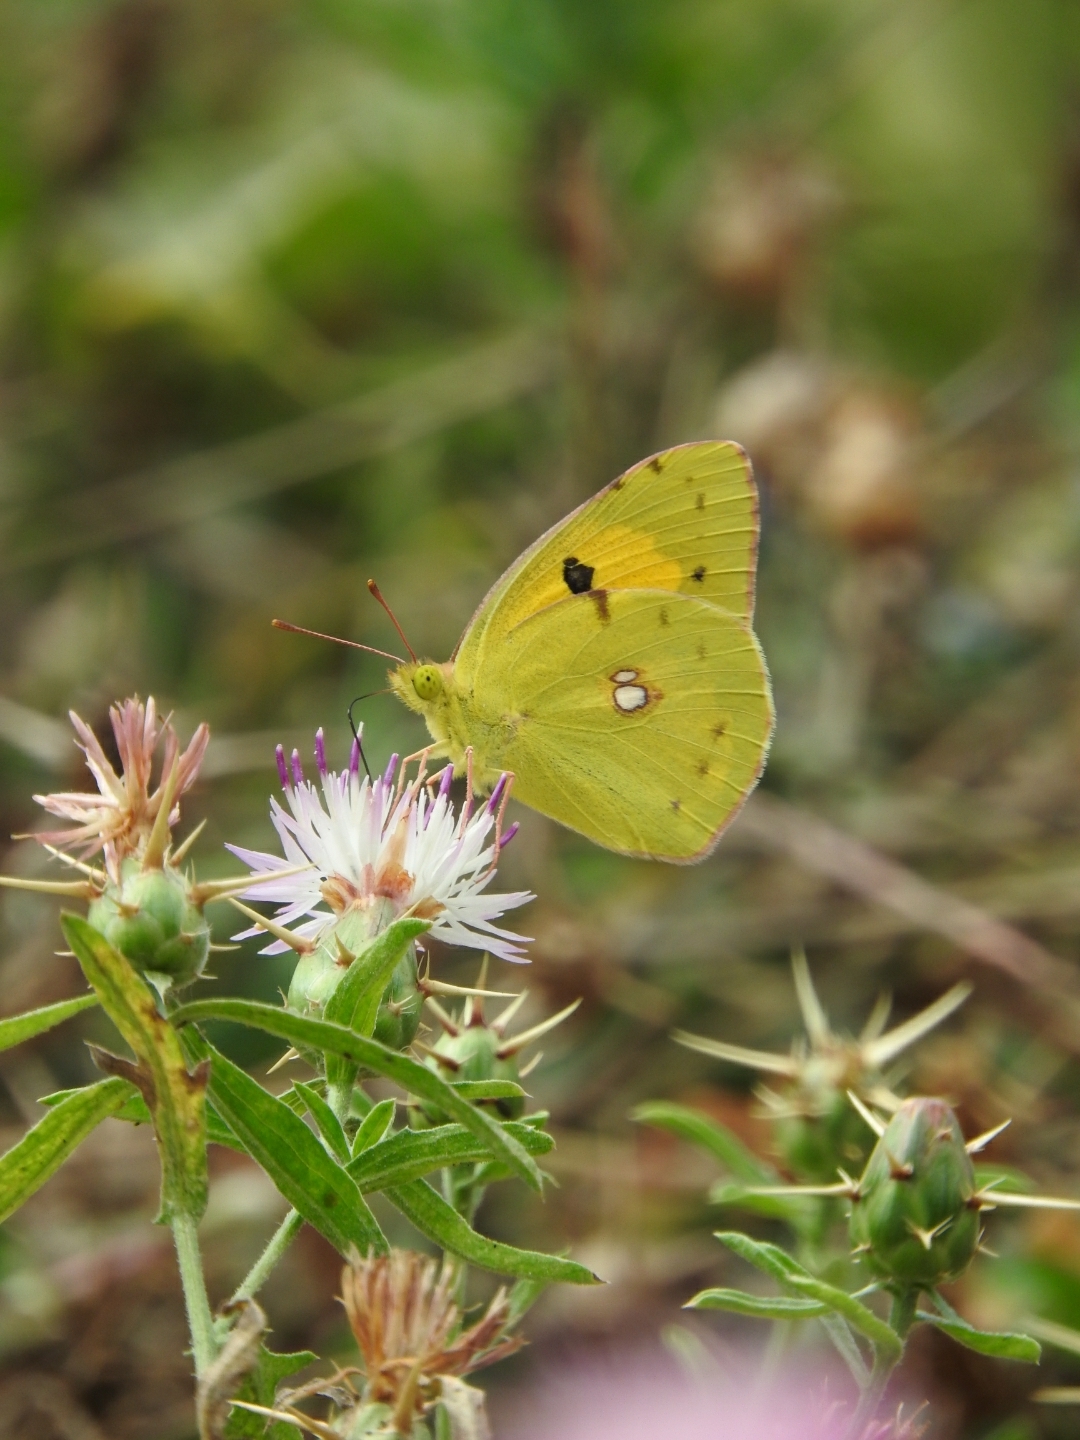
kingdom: Animalia
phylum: Arthropoda
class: Insecta
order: Lepidoptera
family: Pieridae
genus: Colias
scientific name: Colias croceus
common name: Clouded yellow
